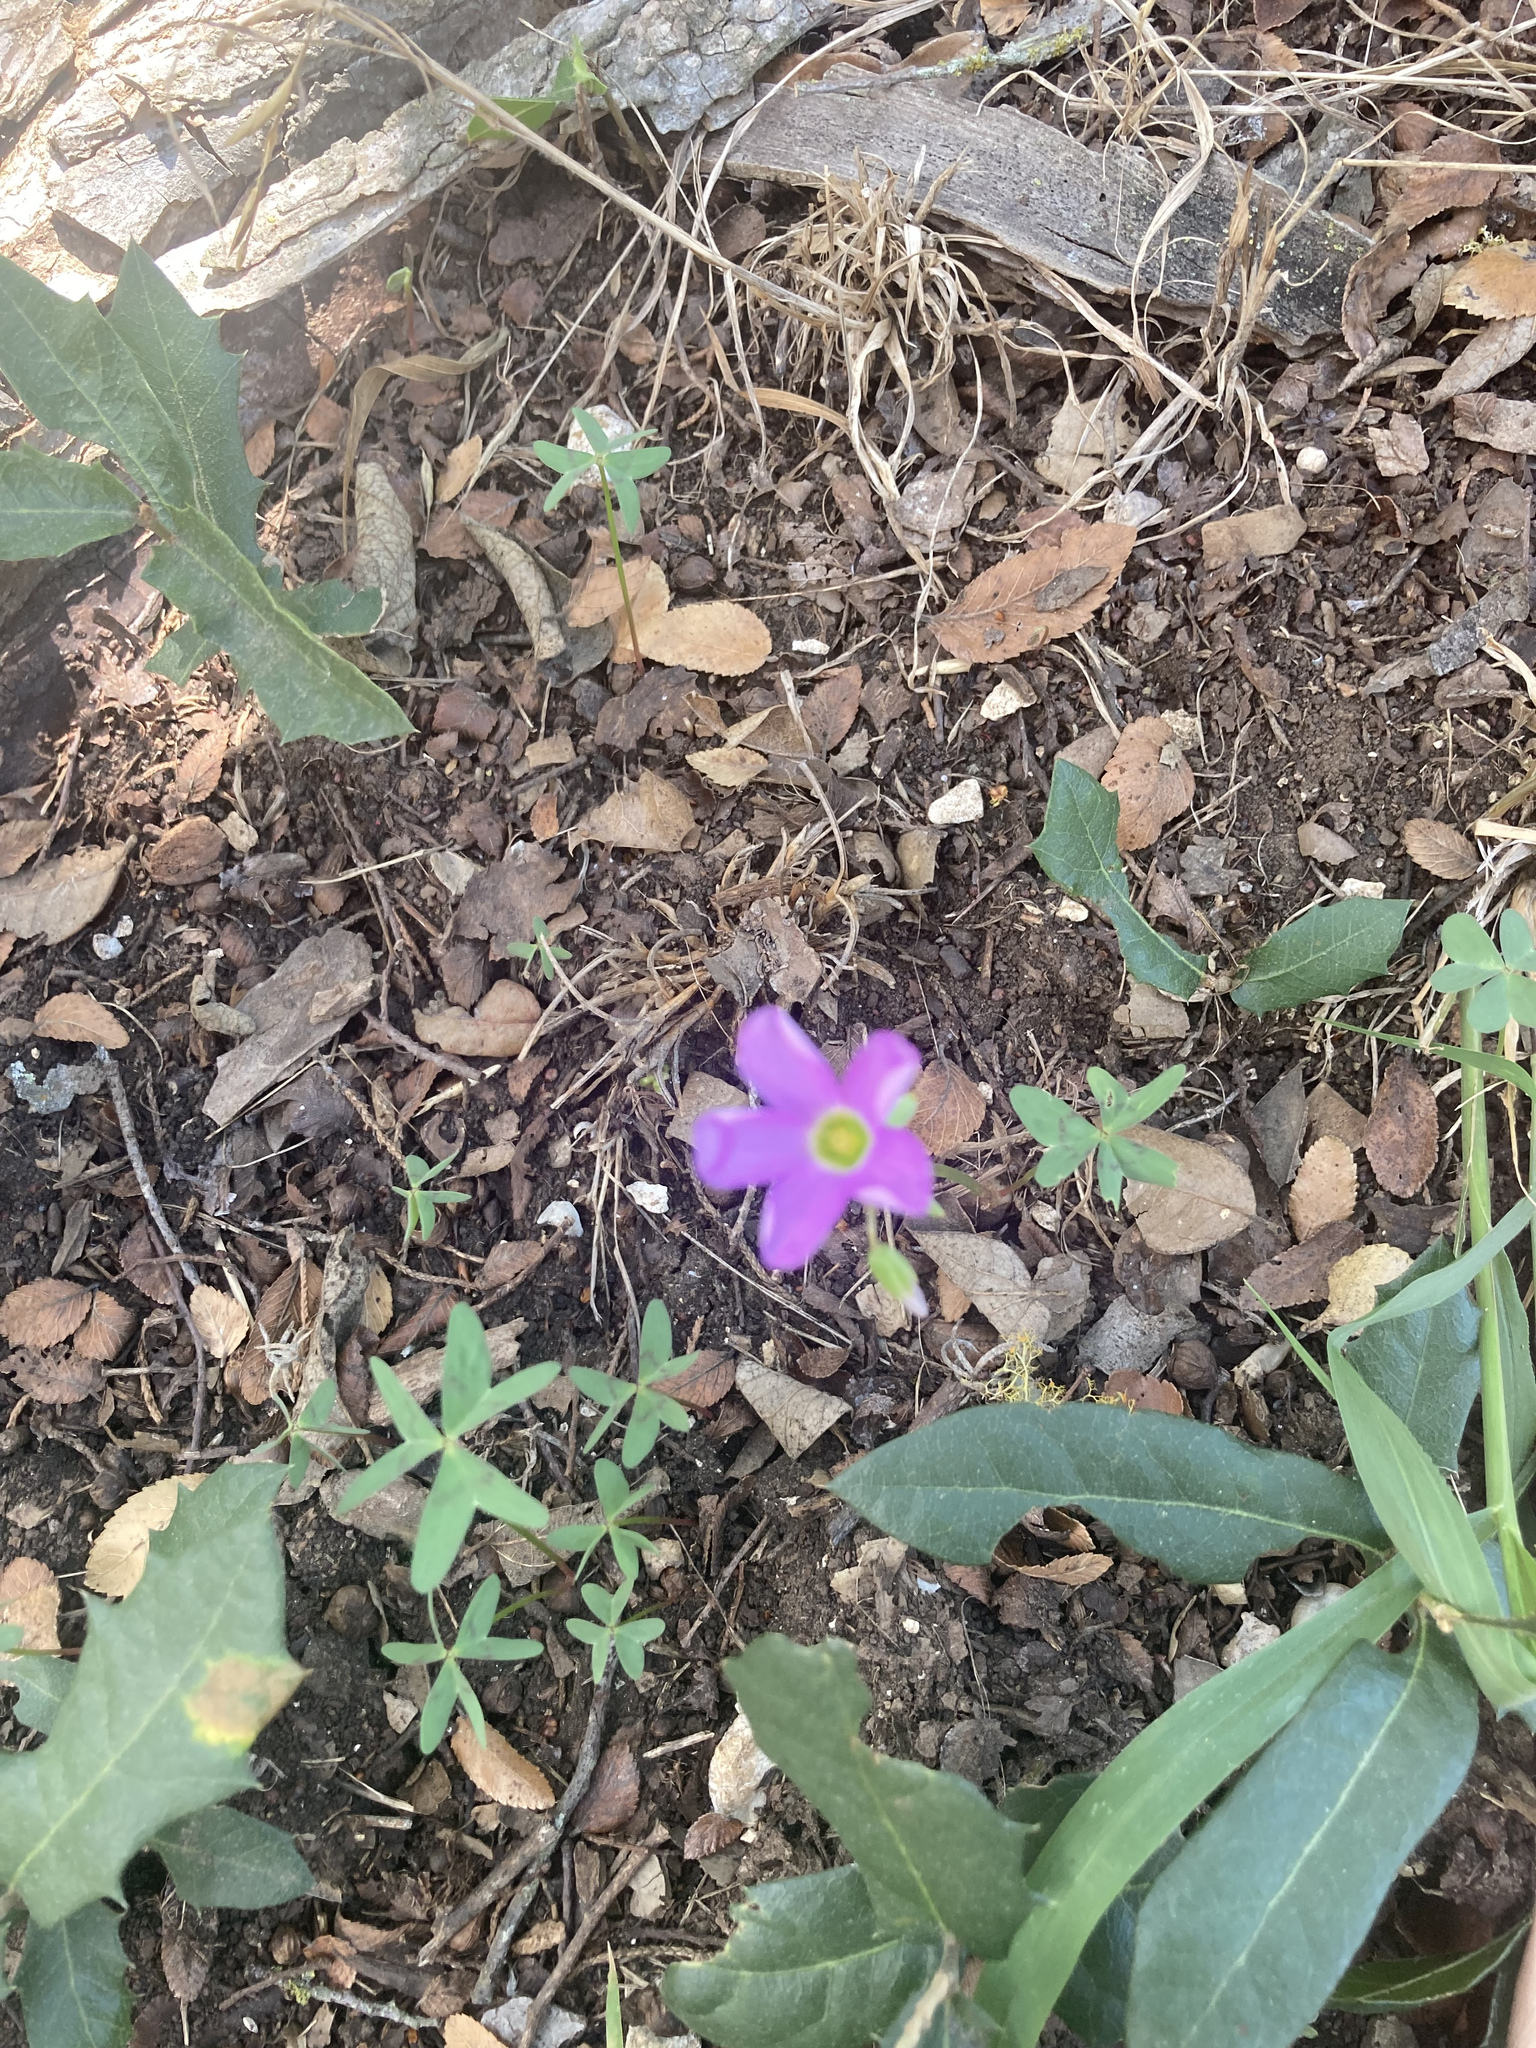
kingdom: Plantae
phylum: Tracheophyta
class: Magnoliopsida
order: Oxalidales
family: Oxalidaceae
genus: Oxalis
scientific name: Oxalis drummondii
